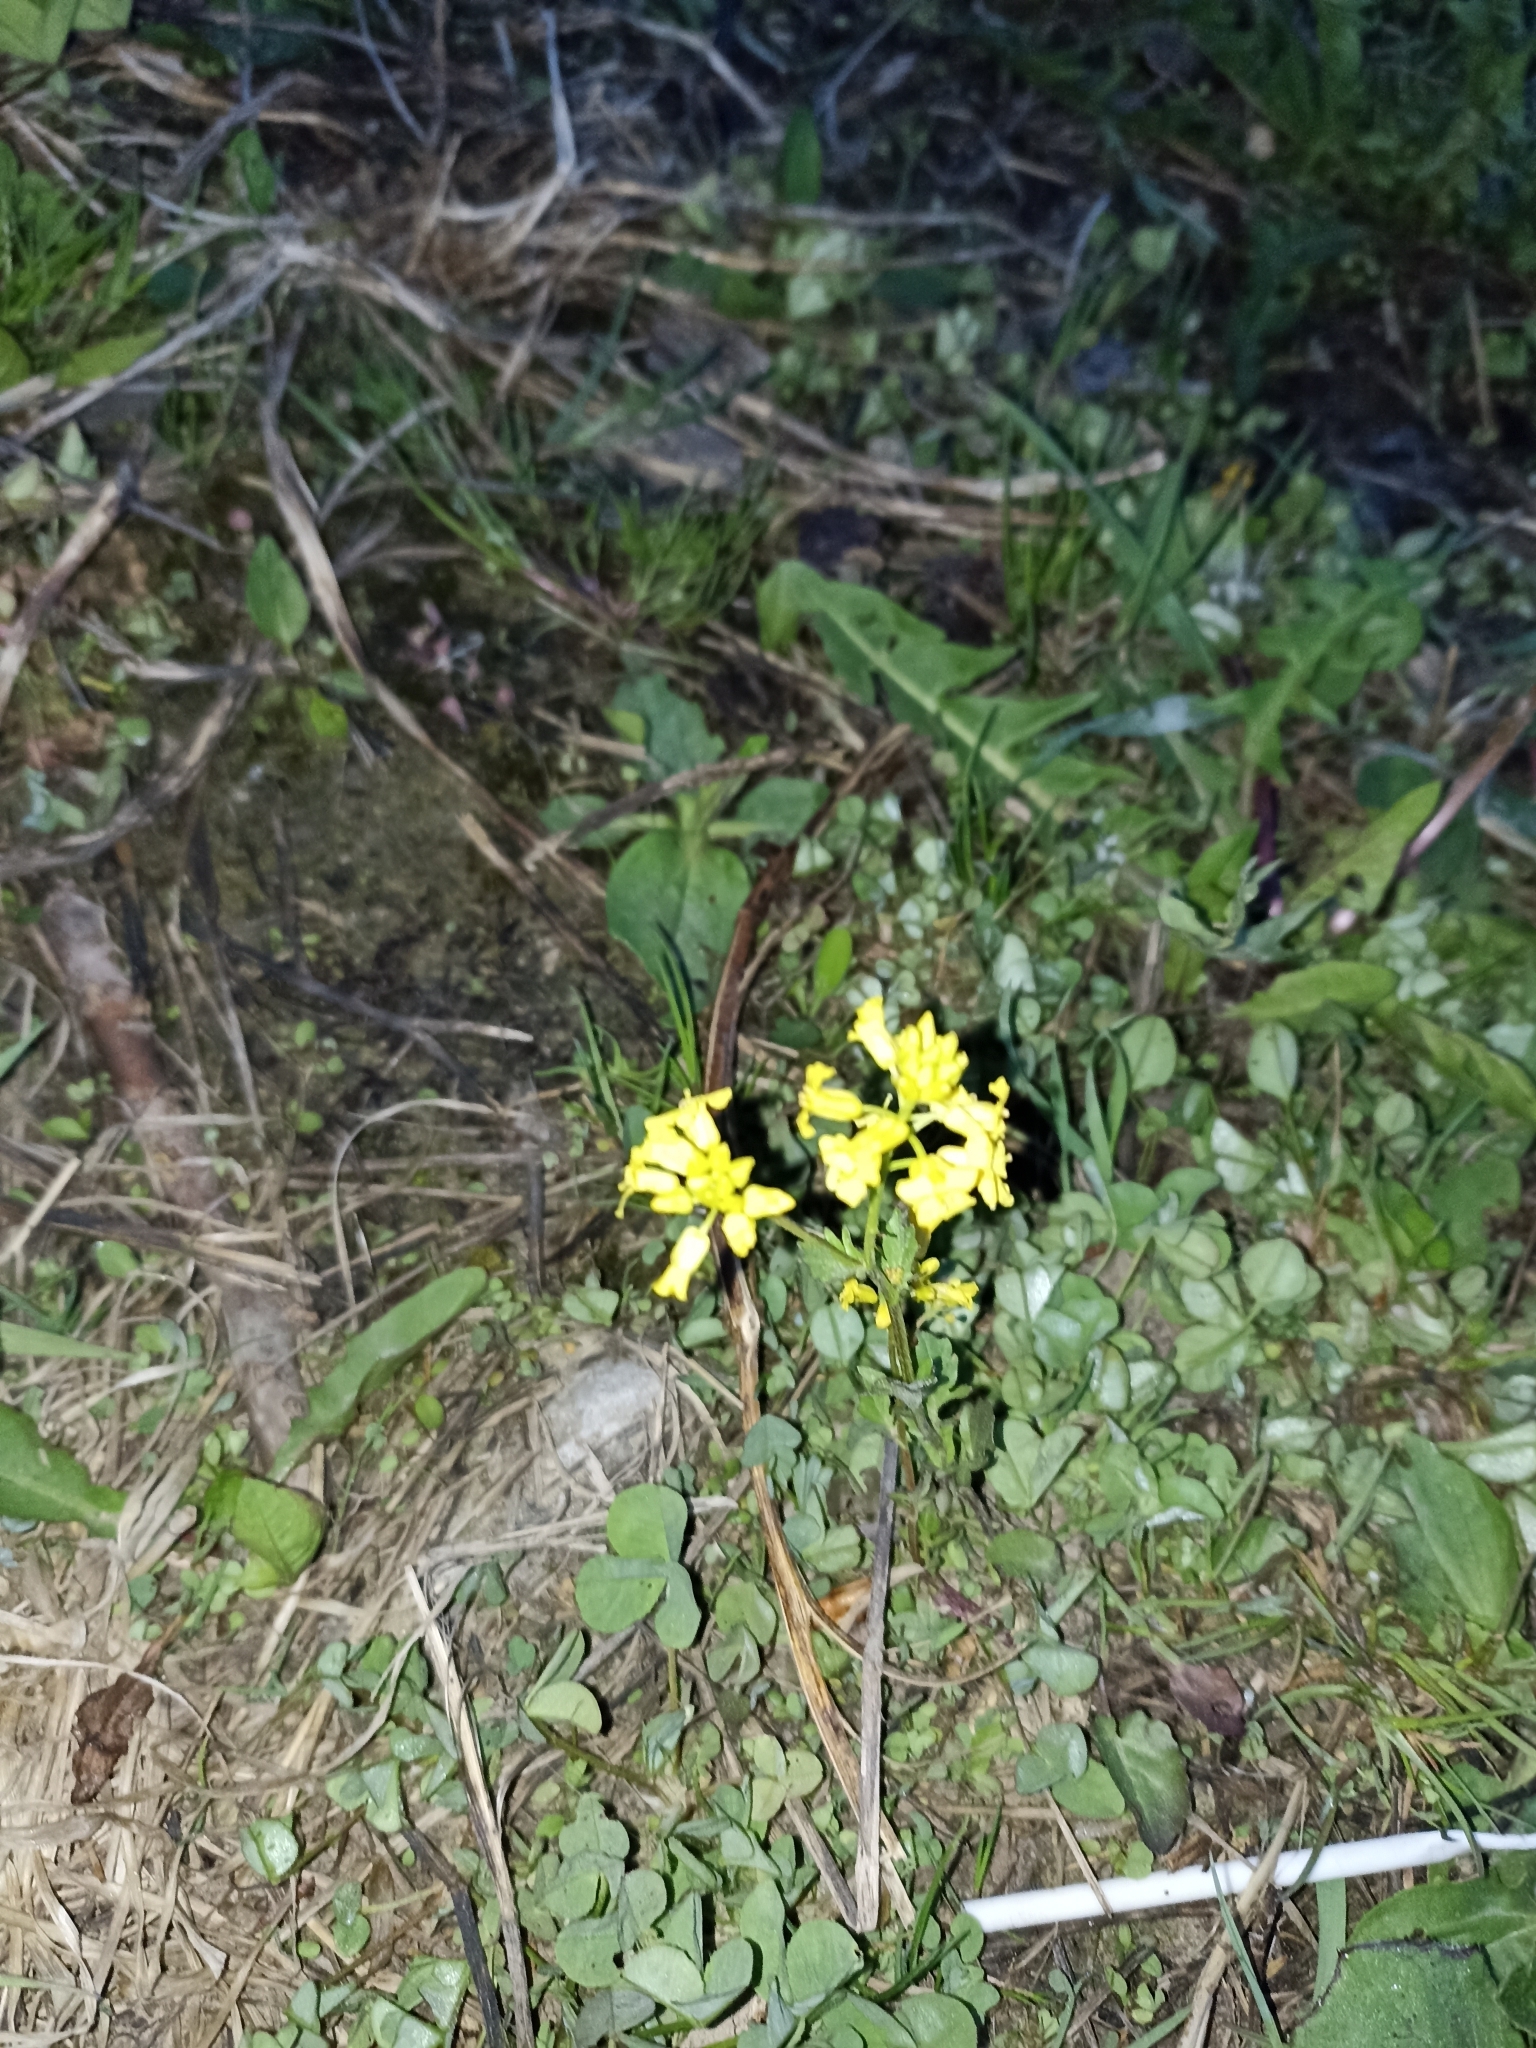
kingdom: Plantae
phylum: Tracheophyta
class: Magnoliopsida
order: Brassicales
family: Brassicaceae
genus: Barbarea
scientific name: Barbarea vulgaris
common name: Cressy-greens
